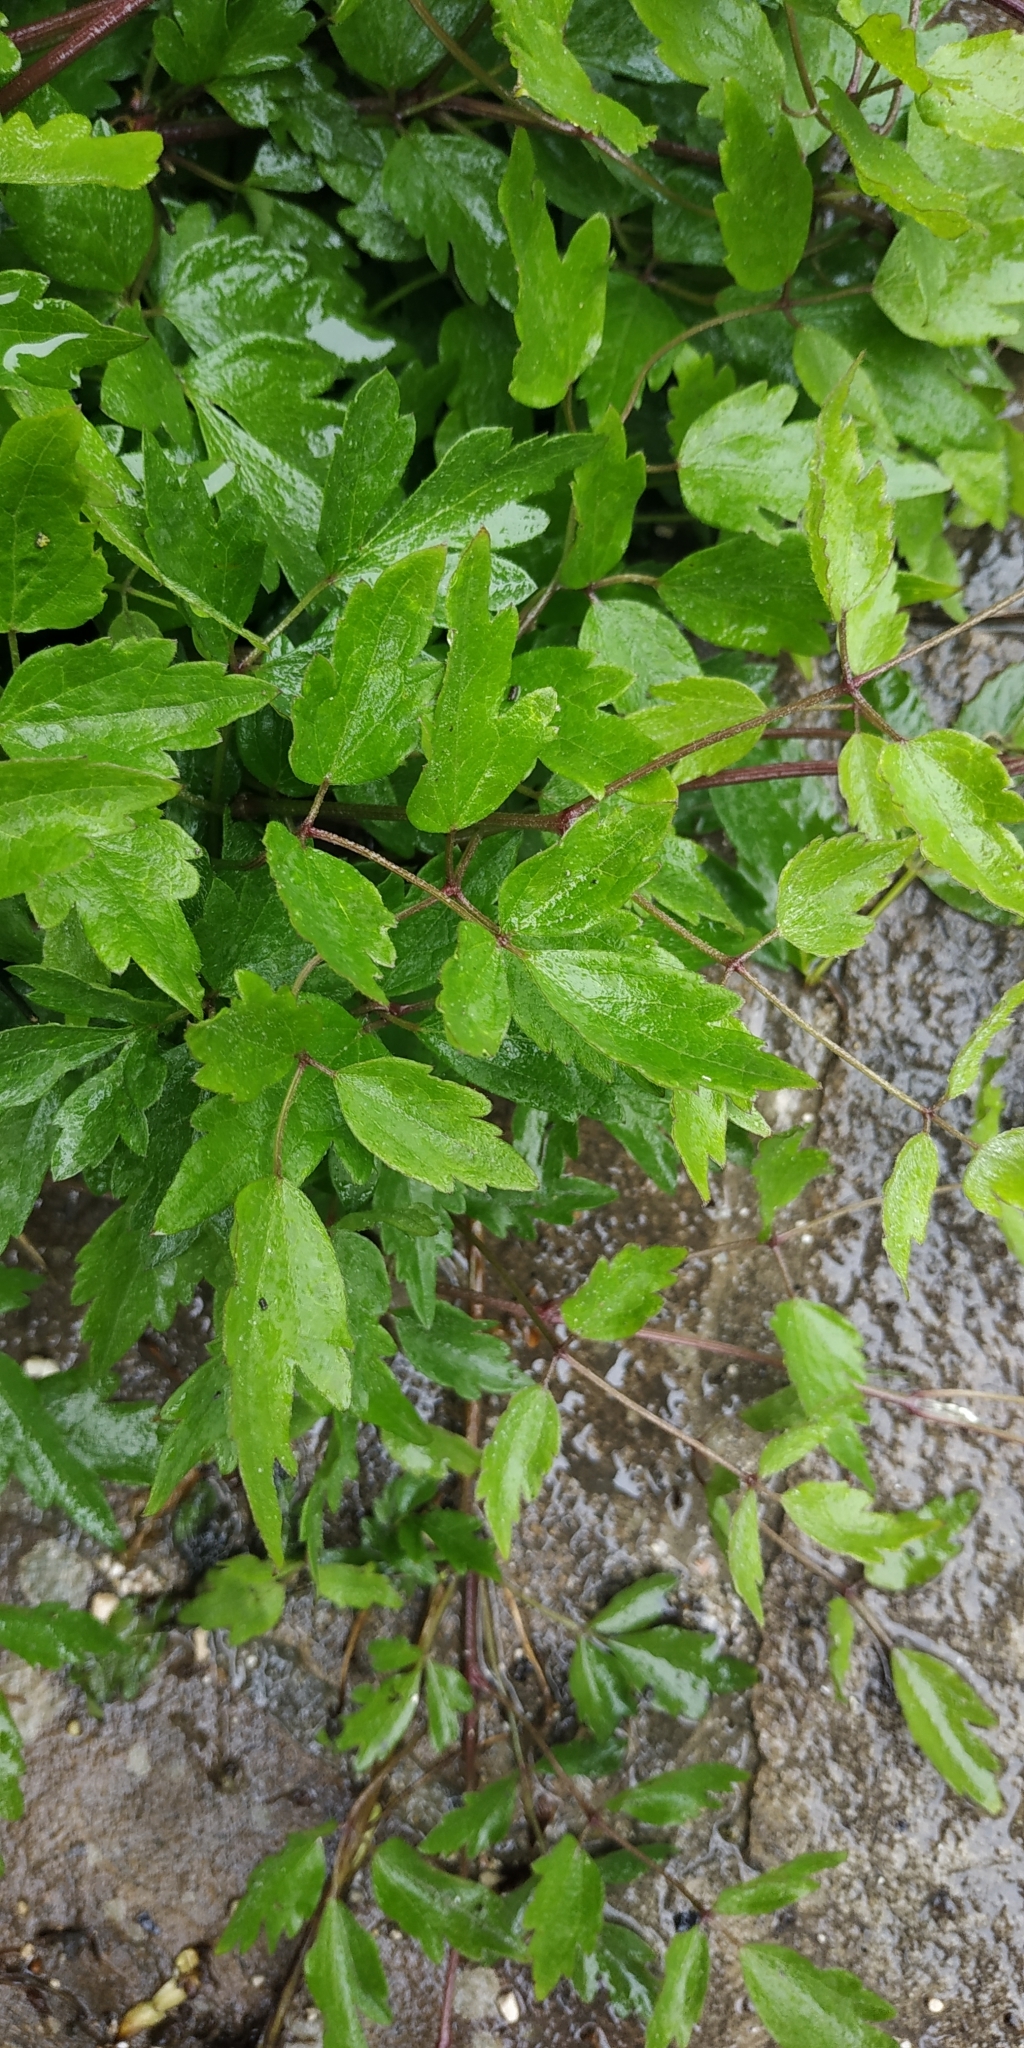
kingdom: Plantae
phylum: Tracheophyta
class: Magnoliopsida
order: Ranunculales
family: Ranunculaceae
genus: Clematis
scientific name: Clematis vitalba
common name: Evergreen clematis
